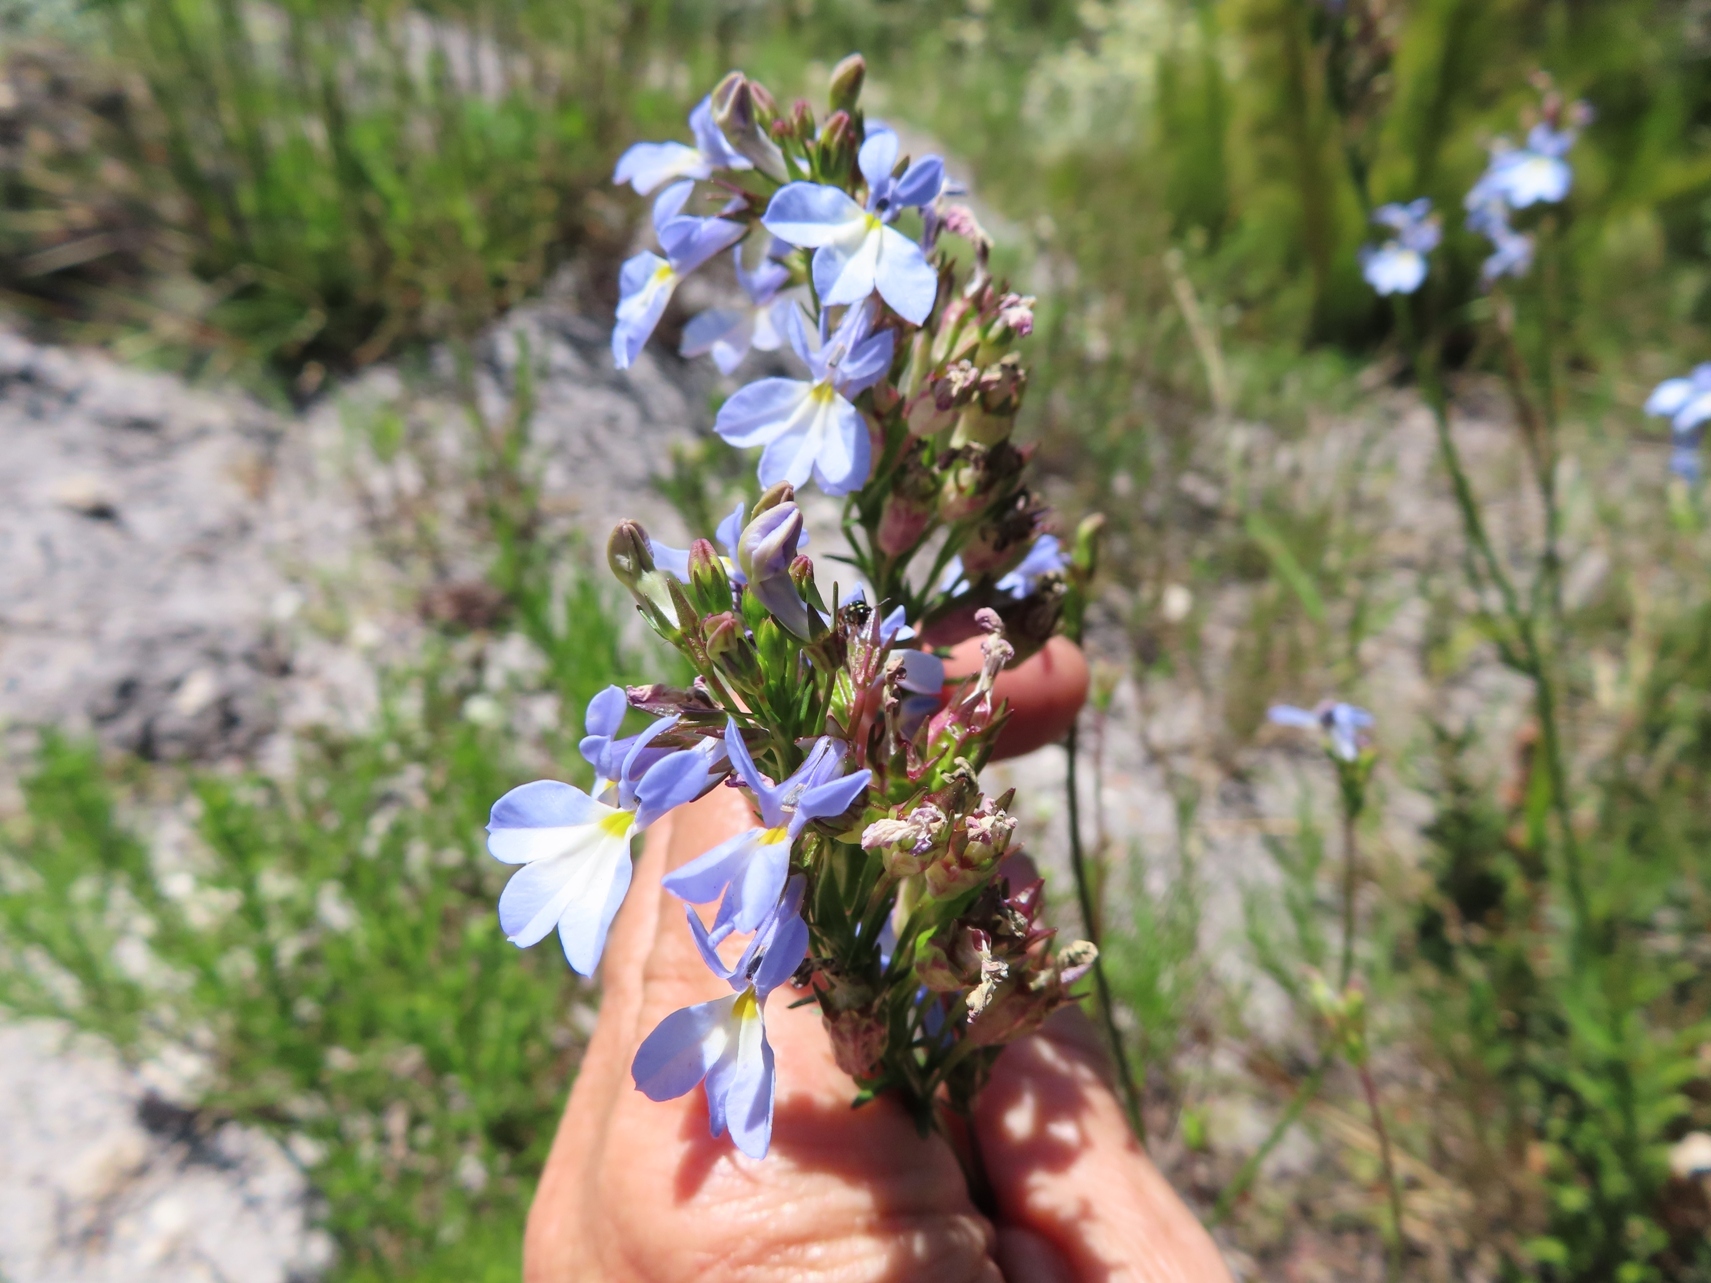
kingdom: Plantae
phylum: Tracheophyta
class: Magnoliopsida
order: Asterales
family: Campanulaceae
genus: Lobelia
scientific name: Lobelia comosa
